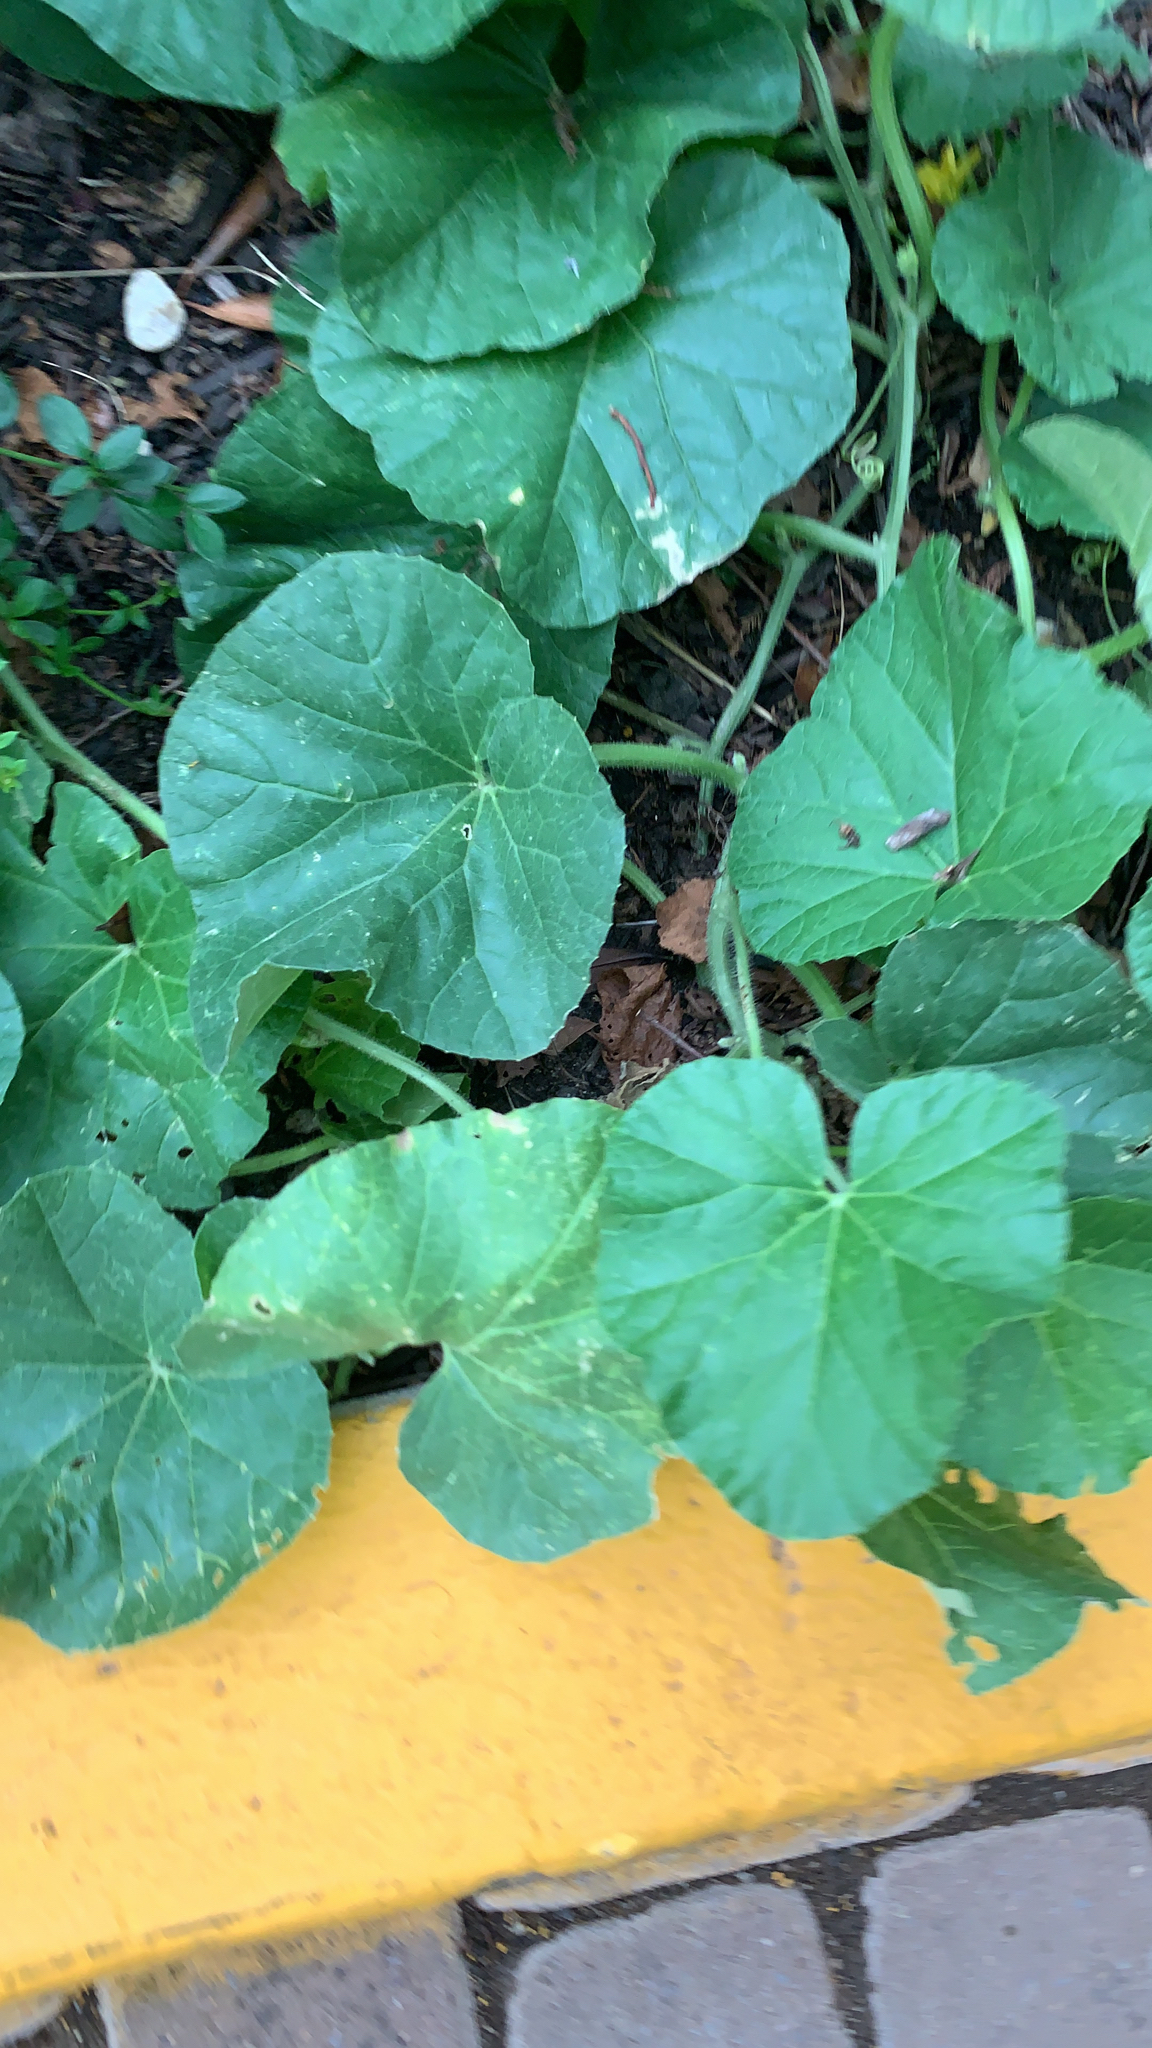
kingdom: Plantae
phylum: Tracheophyta
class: Magnoliopsida
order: Cucurbitales
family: Cucurbitaceae
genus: Cucumis
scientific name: Cucumis melo
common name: Melon
